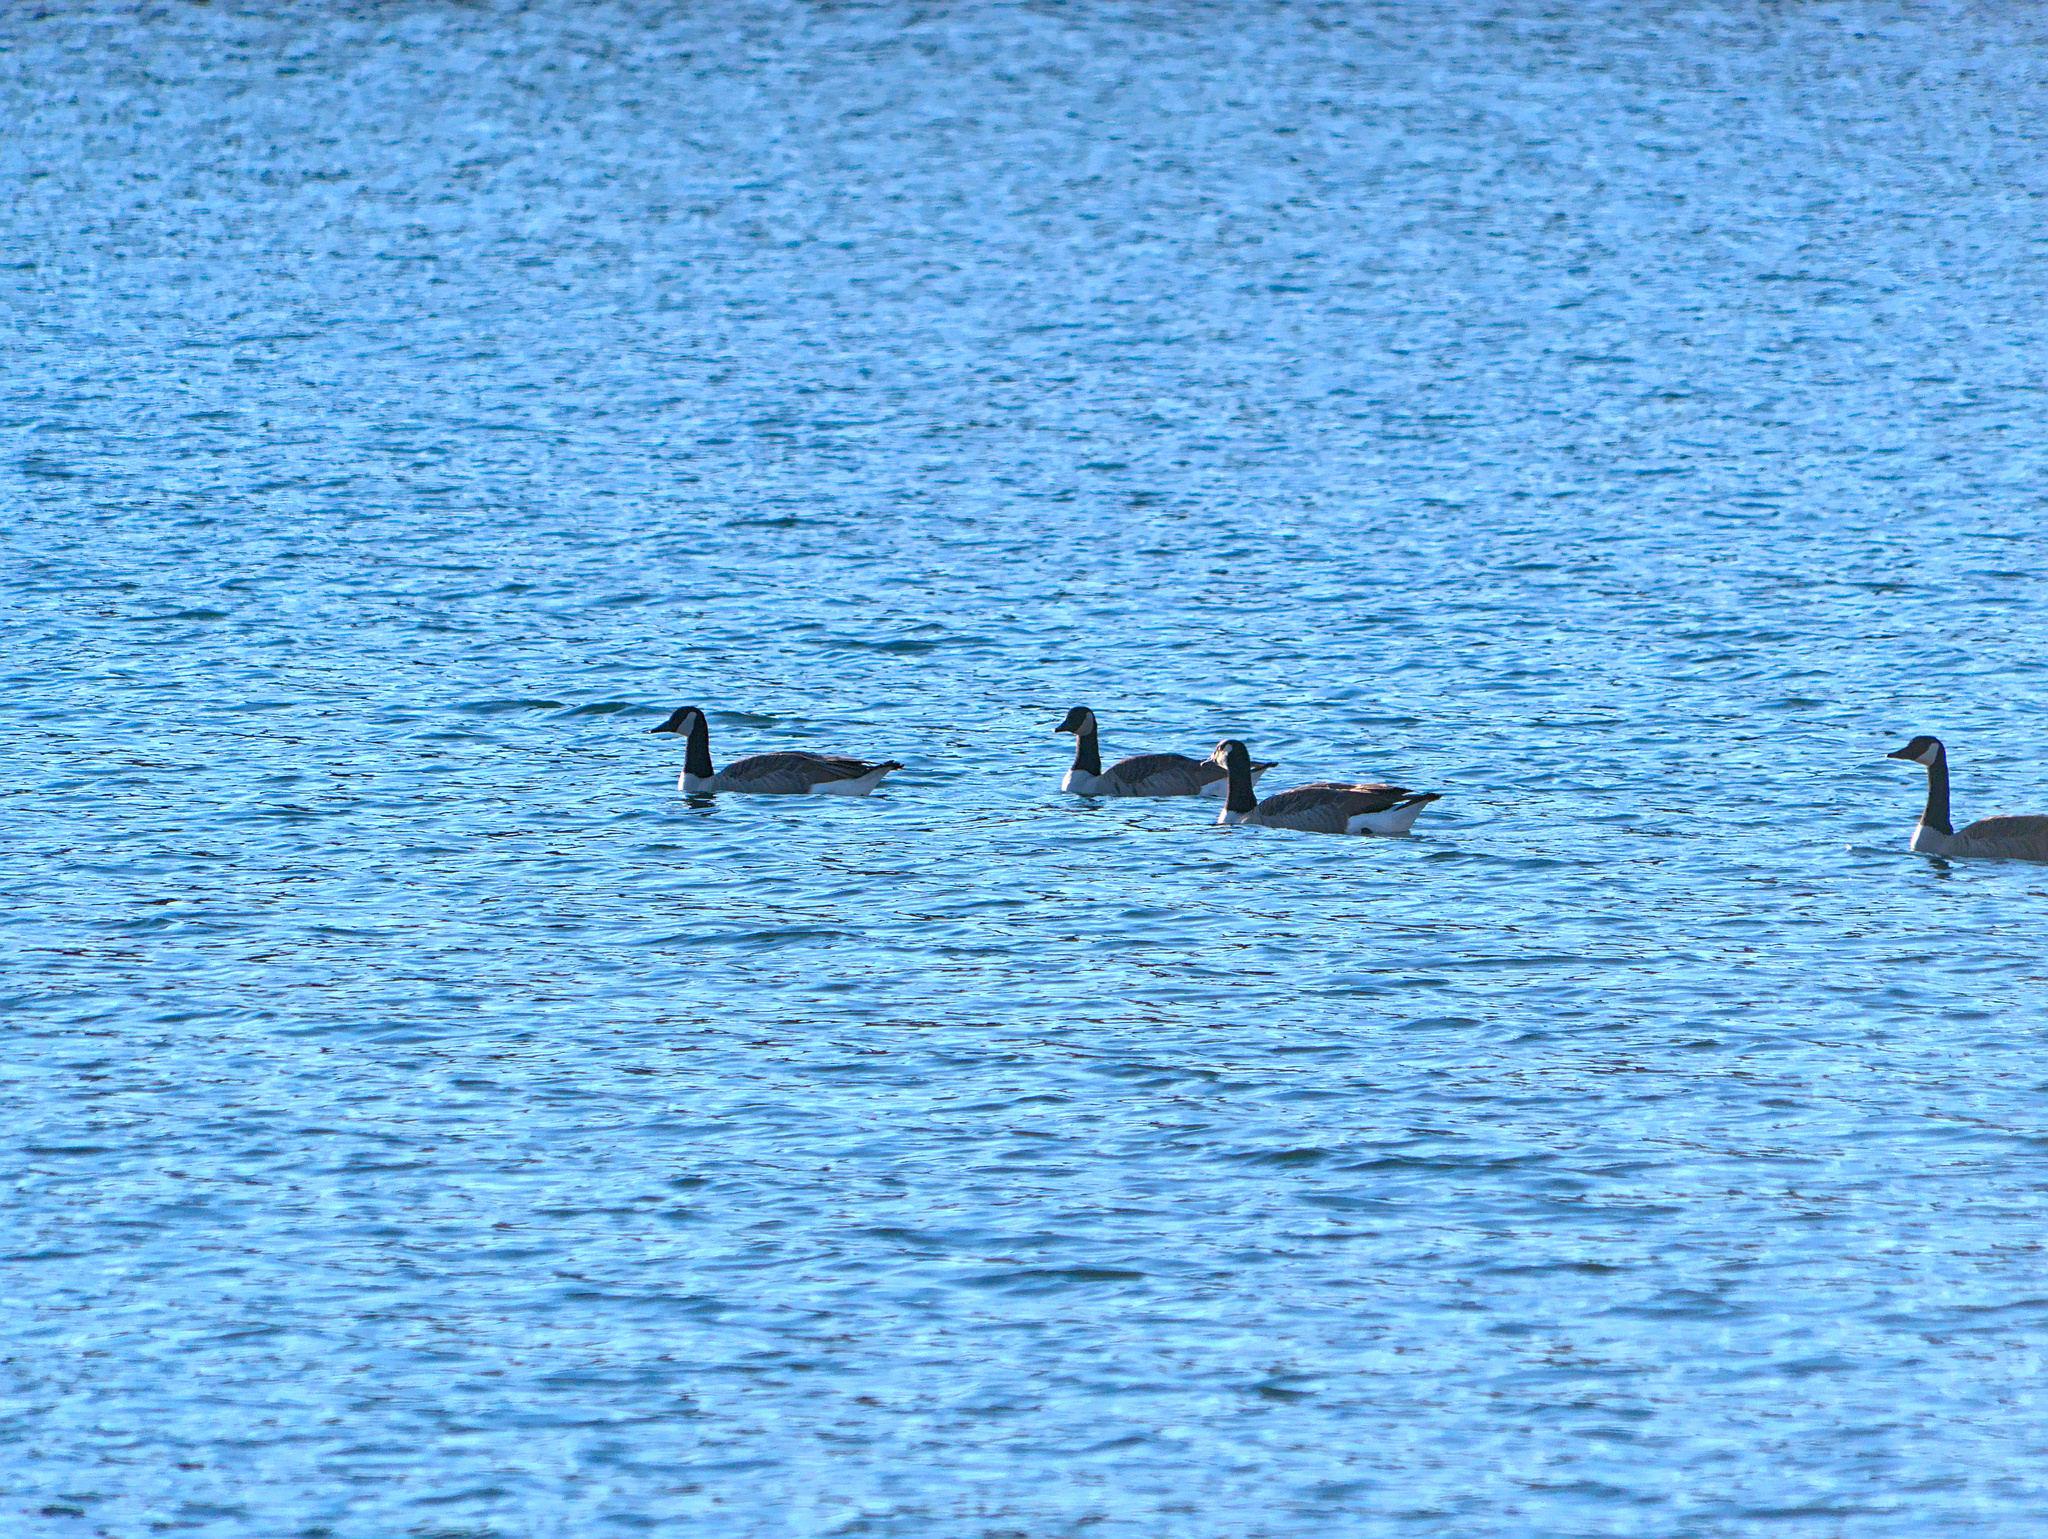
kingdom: Animalia
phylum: Chordata
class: Aves
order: Anseriformes
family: Anatidae
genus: Branta
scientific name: Branta canadensis
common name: Canada goose
